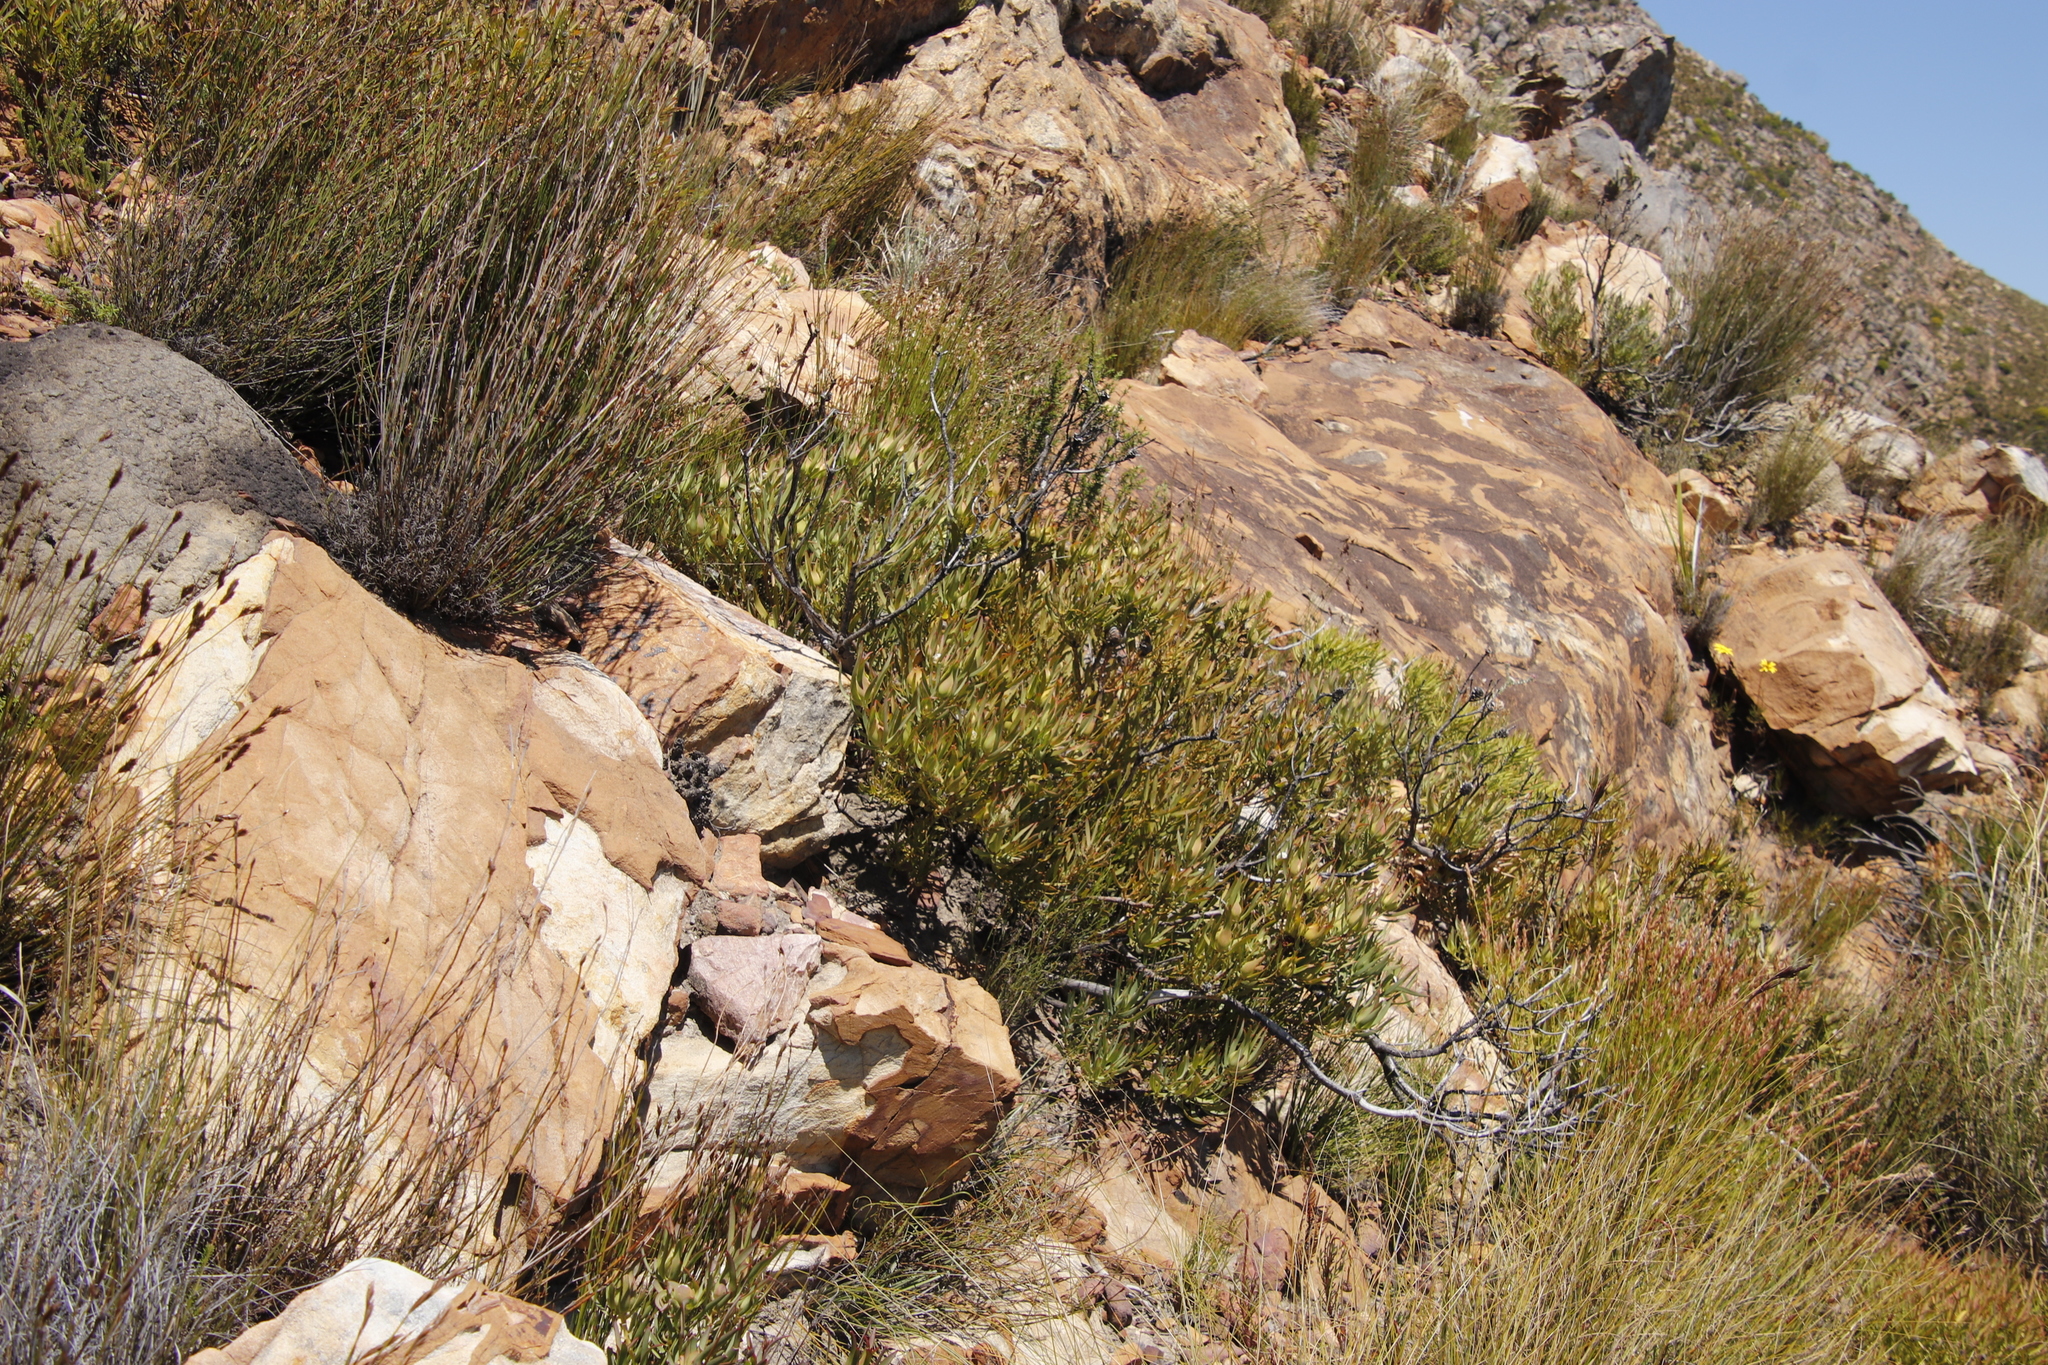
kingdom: Plantae
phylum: Tracheophyta
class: Magnoliopsida
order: Proteales
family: Proteaceae
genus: Leucadendron
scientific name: Leucadendron salignum
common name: Common sunshine conebush
